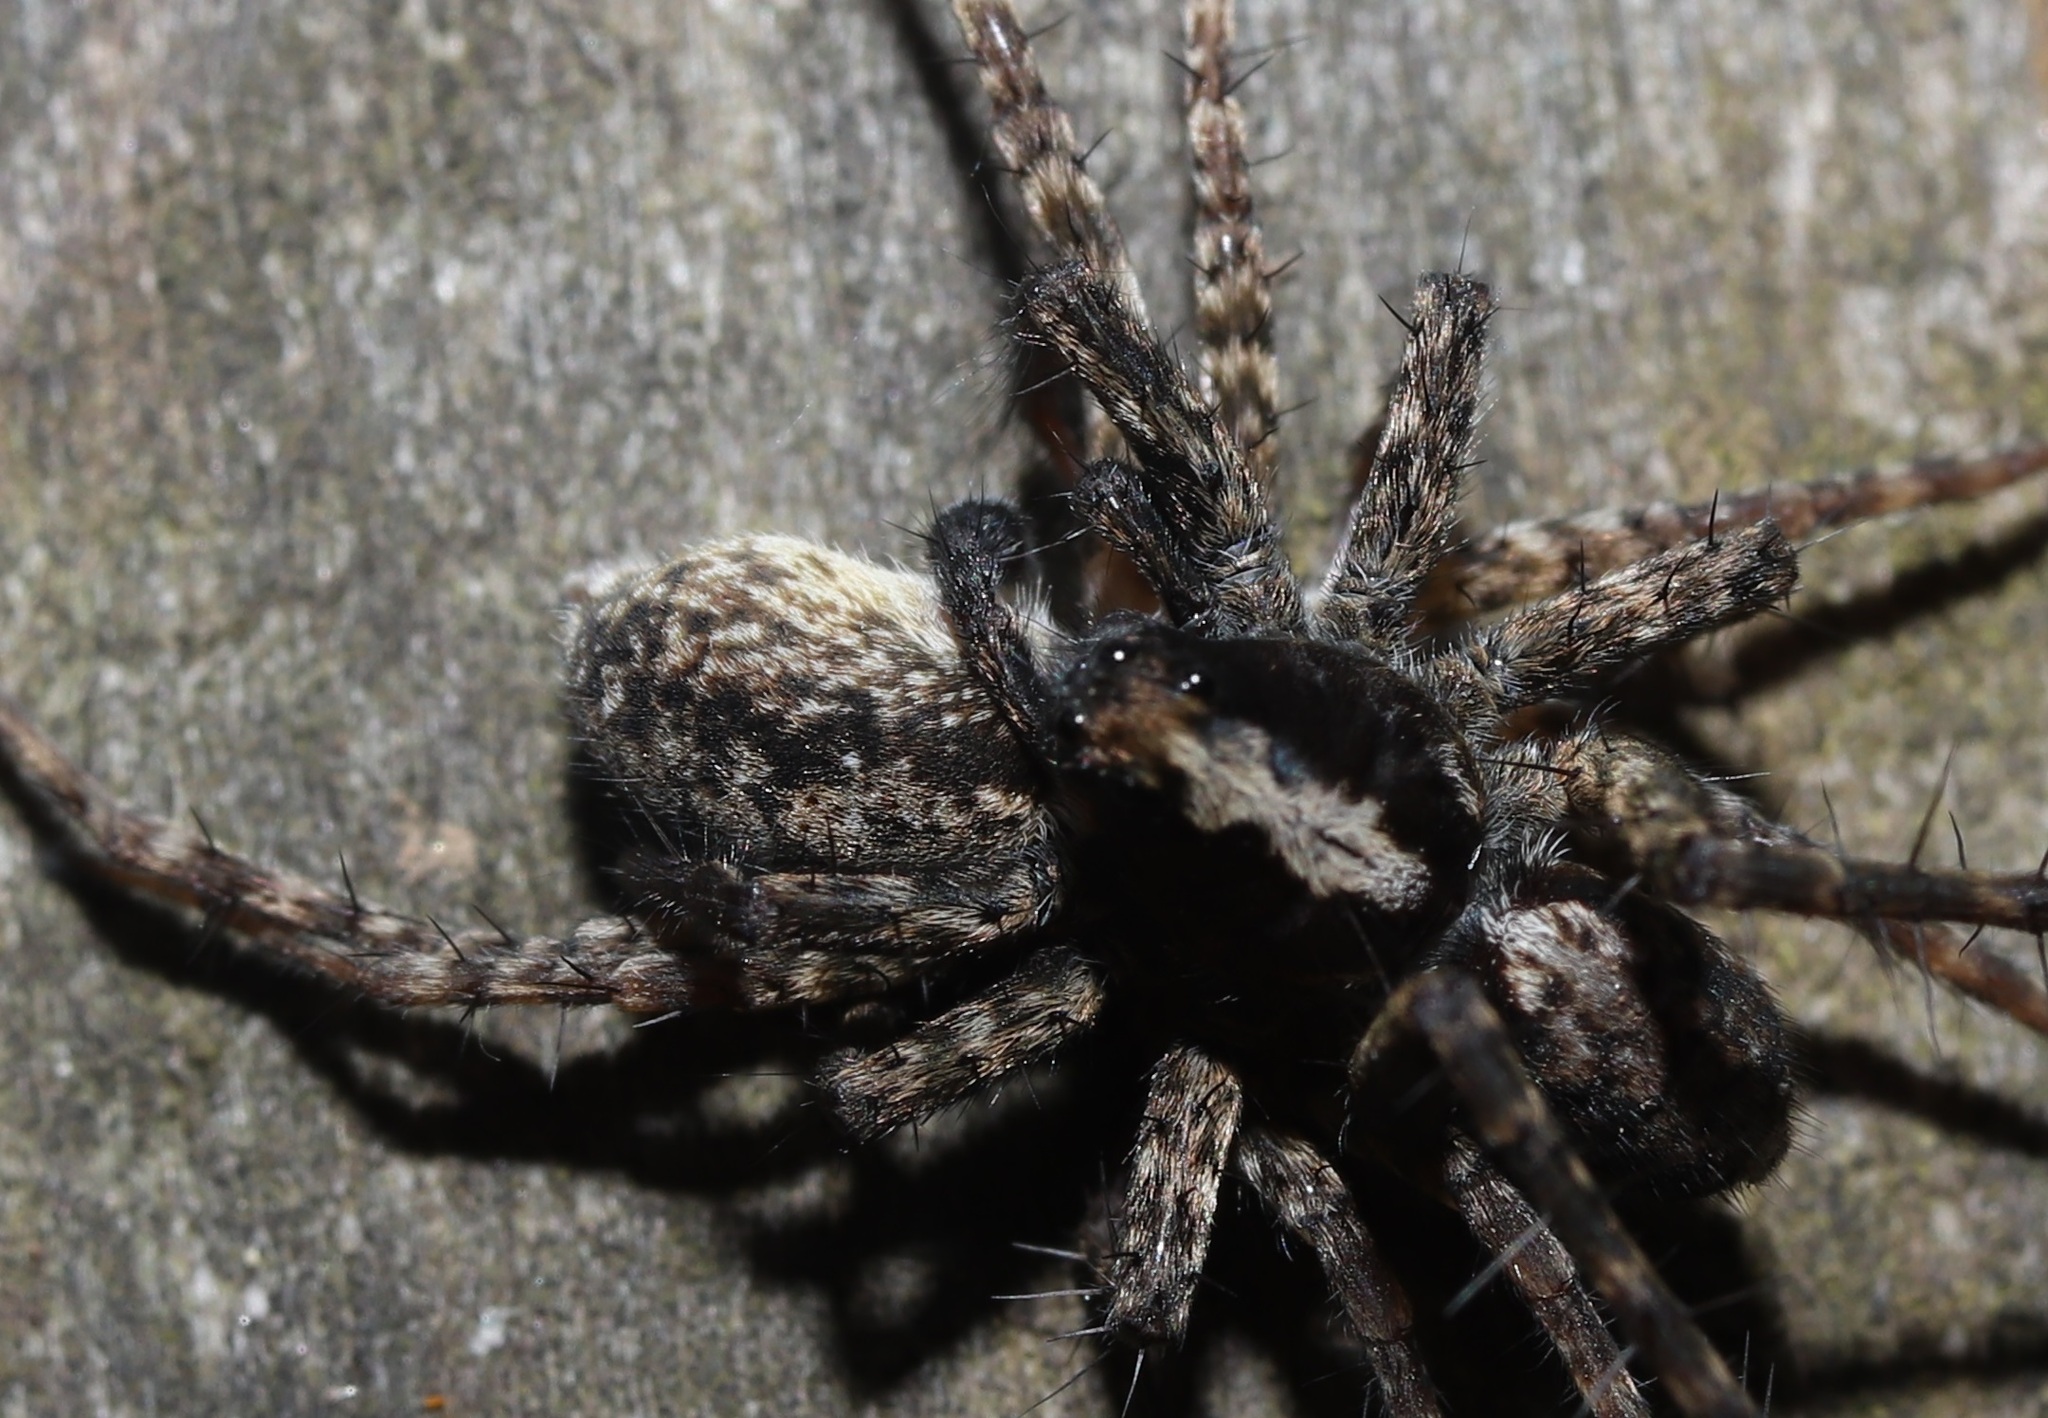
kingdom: Animalia
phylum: Arthropoda
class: Arachnida
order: Araneae
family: Lycosidae
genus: Pardosa
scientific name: Pardosa astrigera
